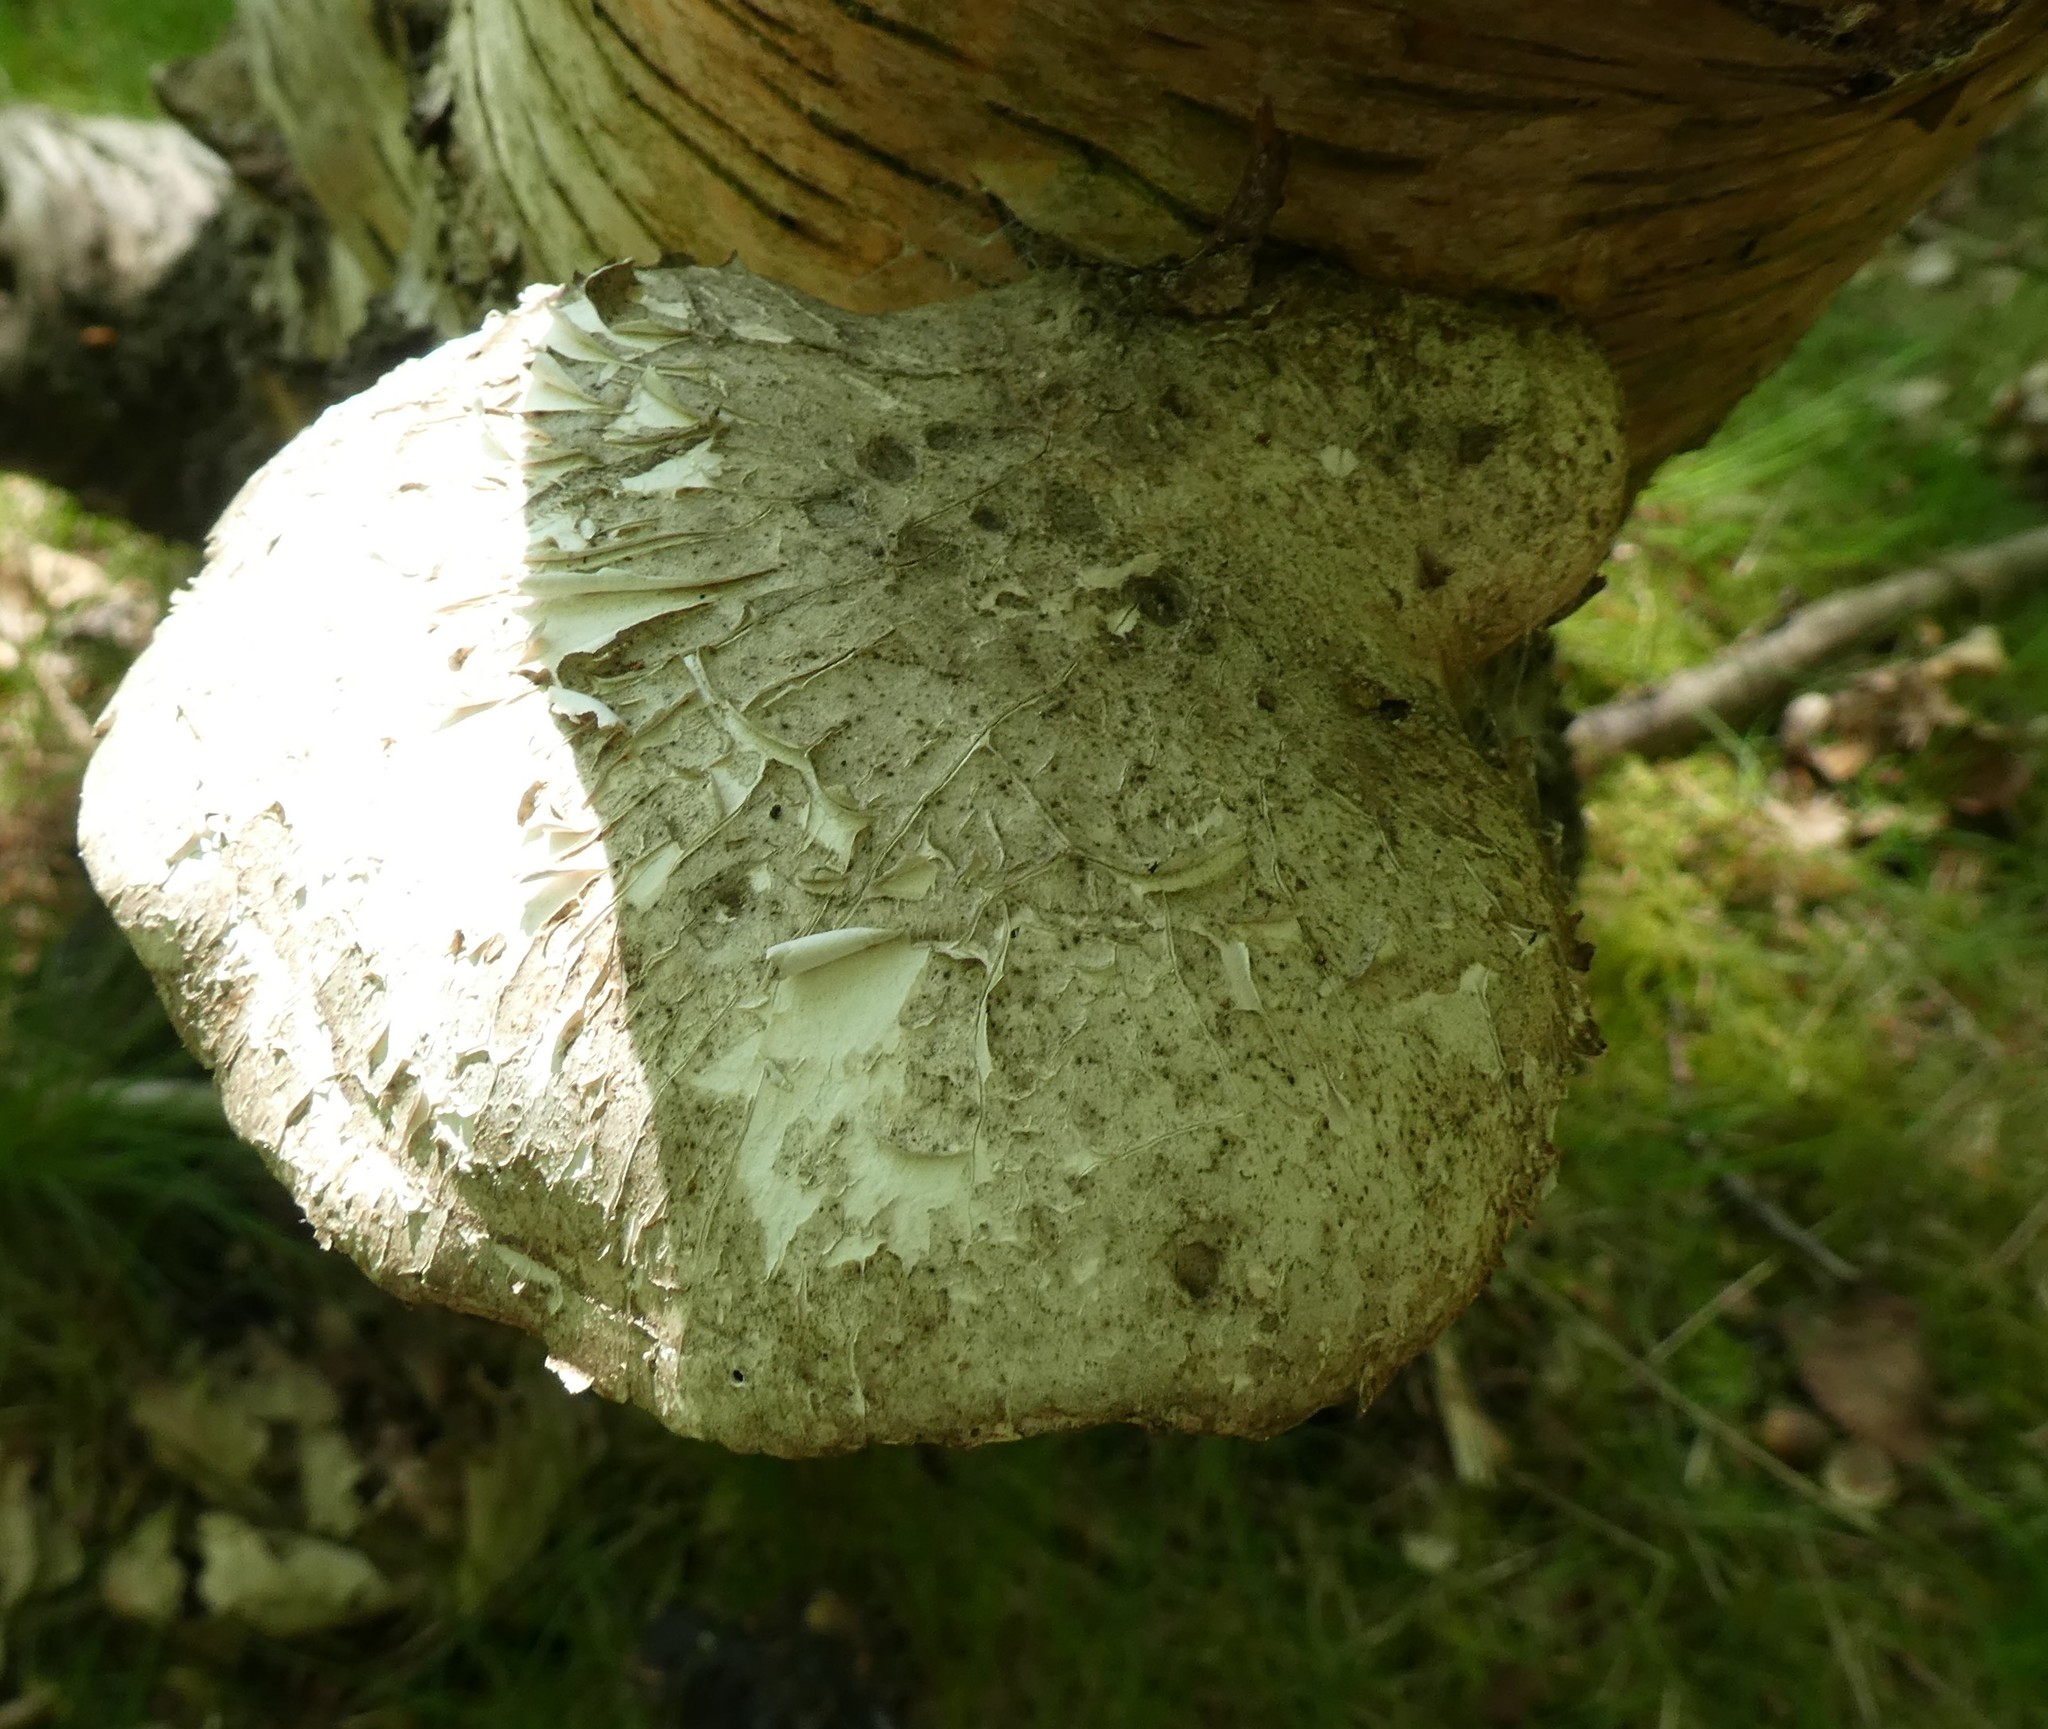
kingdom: Fungi
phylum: Basidiomycota
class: Agaricomycetes
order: Polyporales
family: Fomitopsidaceae
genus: Fomitopsis
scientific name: Fomitopsis betulina
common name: Birch polypore
